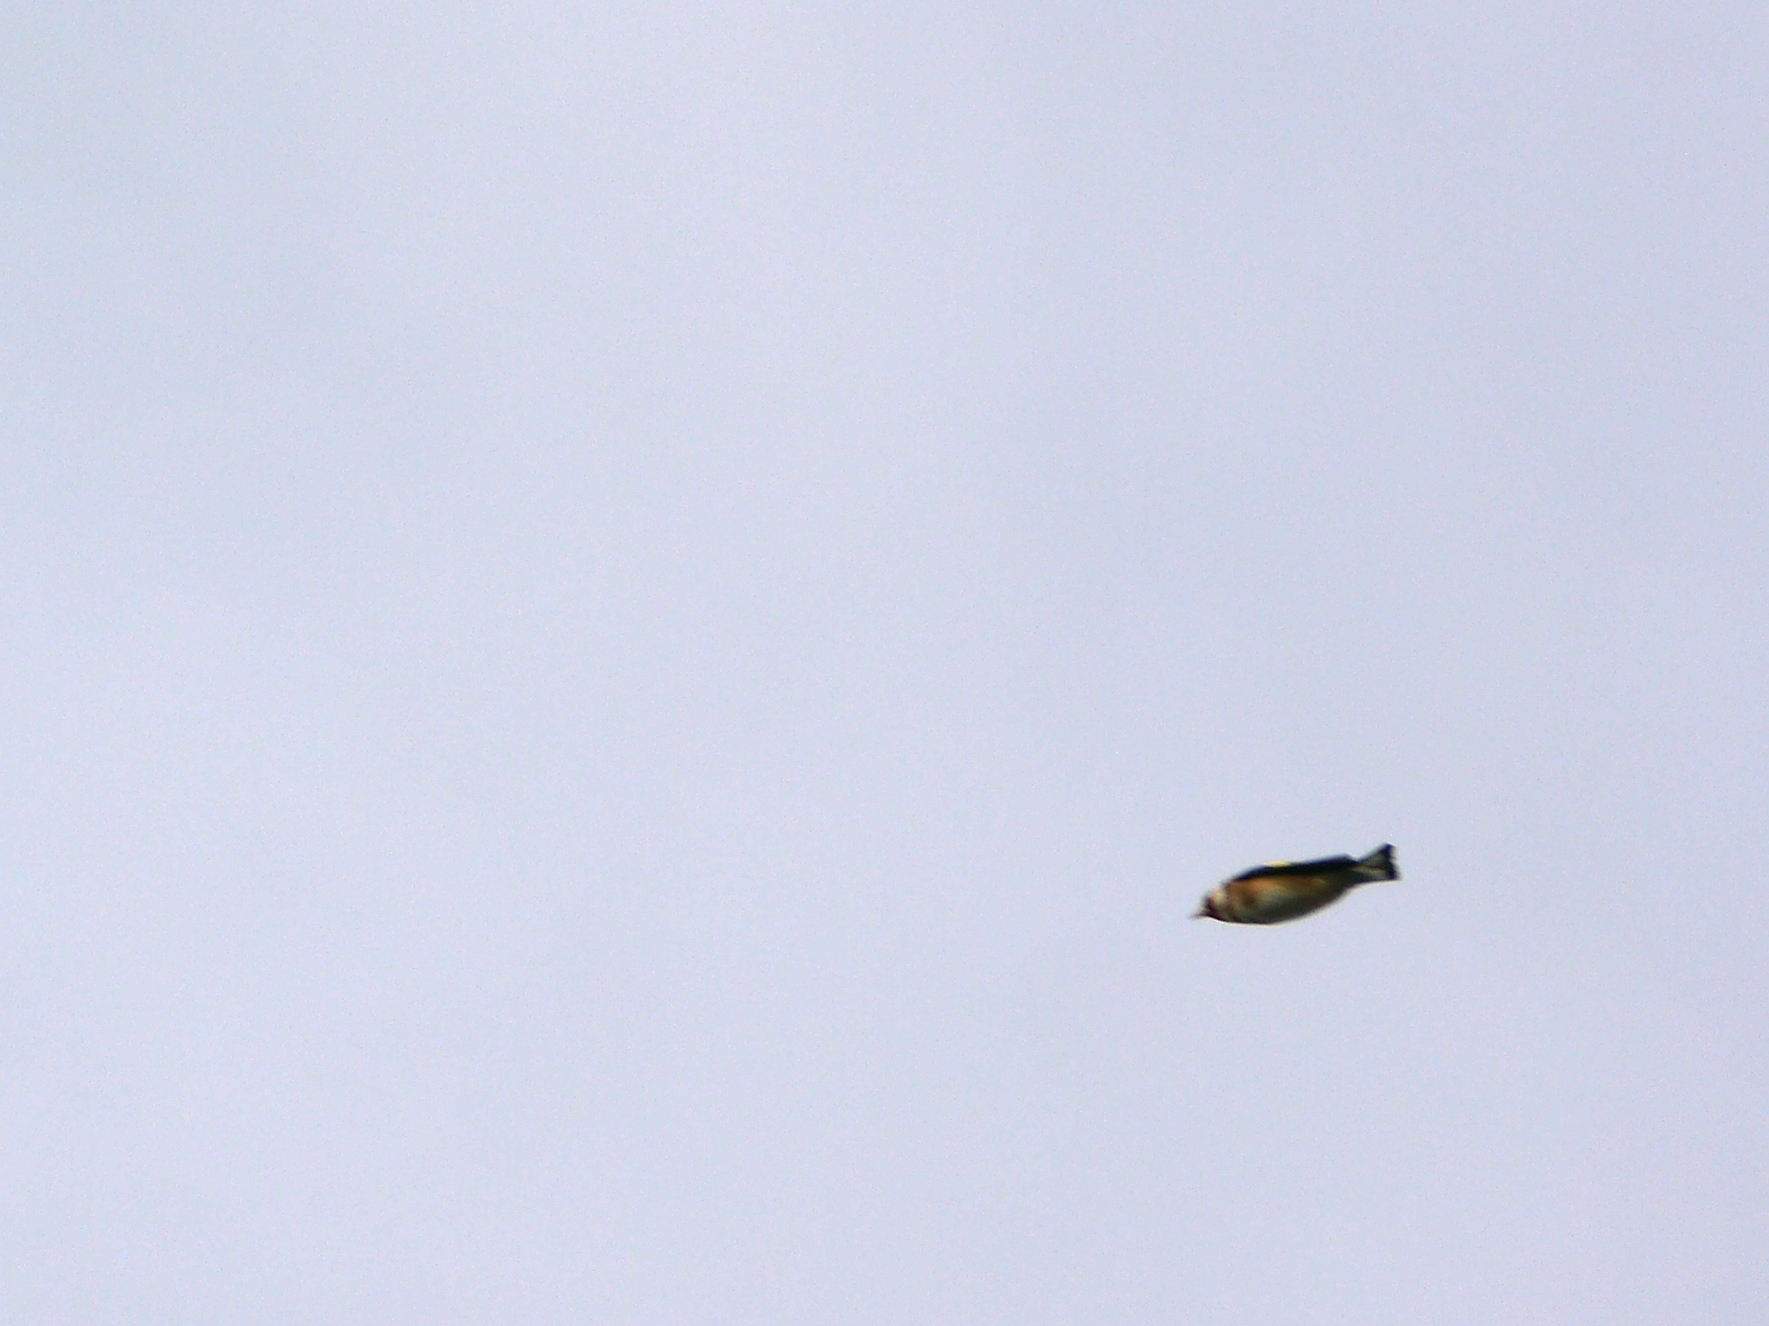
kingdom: Animalia
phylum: Chordata
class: Aves
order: Passeriformes
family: Fringillidae
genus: Carduelis
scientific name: Carduelis carduelis
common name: European goldfinch
